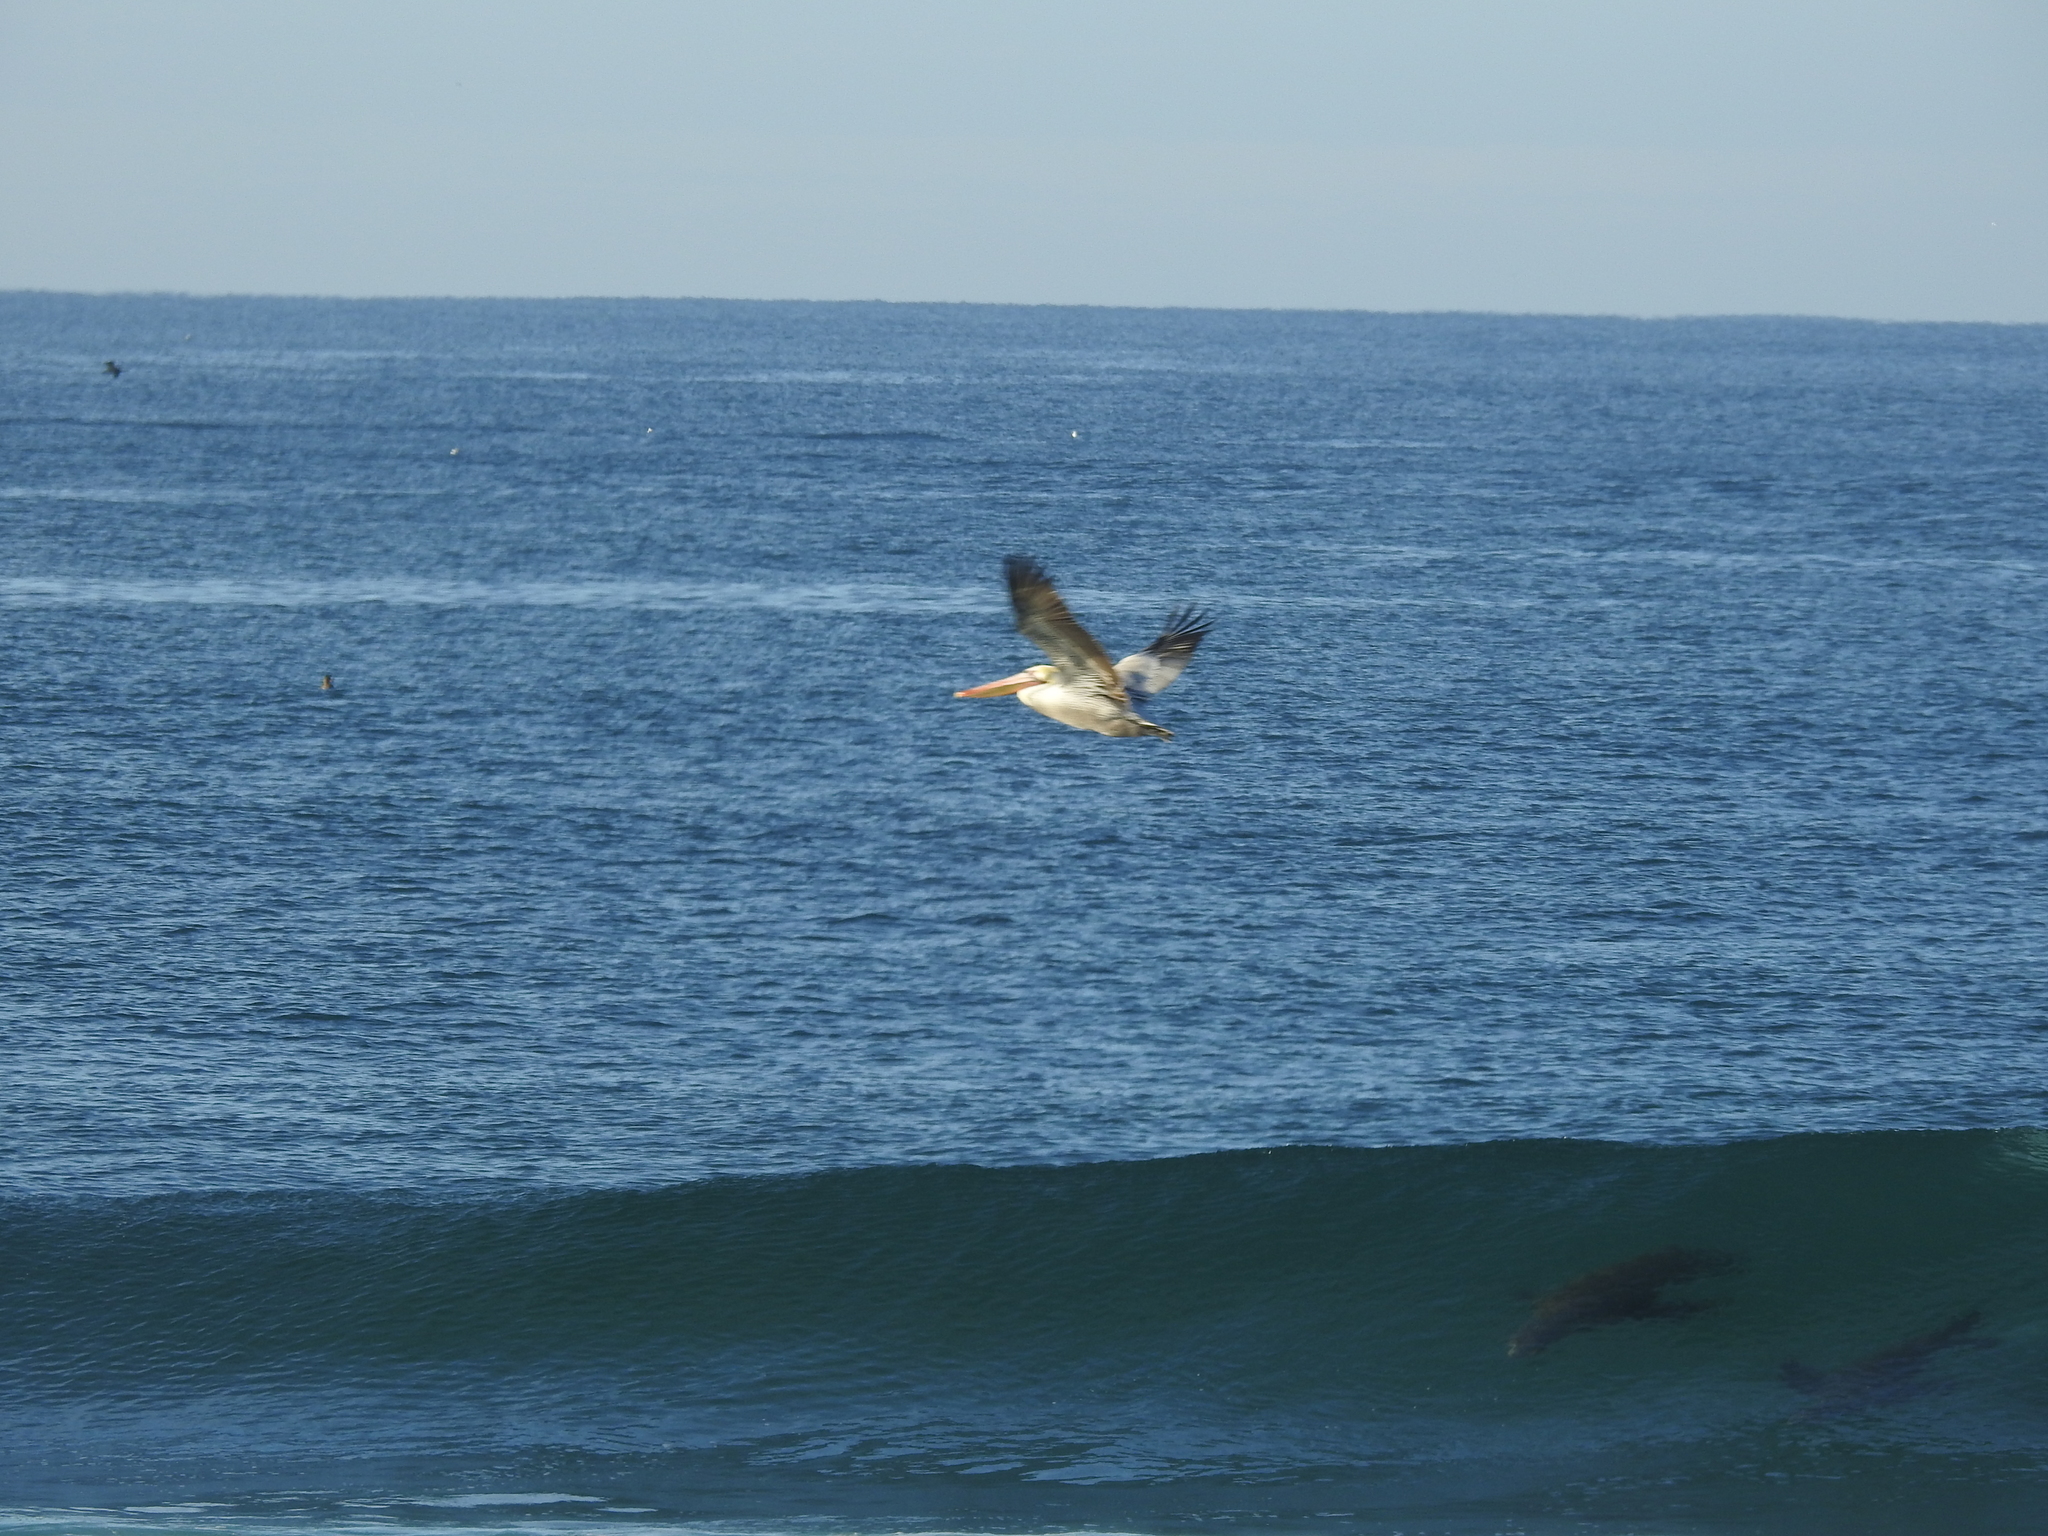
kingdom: Animalia
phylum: Chordata
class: Aves
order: Pelecaniformes
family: Pelecanidae
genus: Pelecanus
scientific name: Pelecanus occidentalis
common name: Brown pelican
